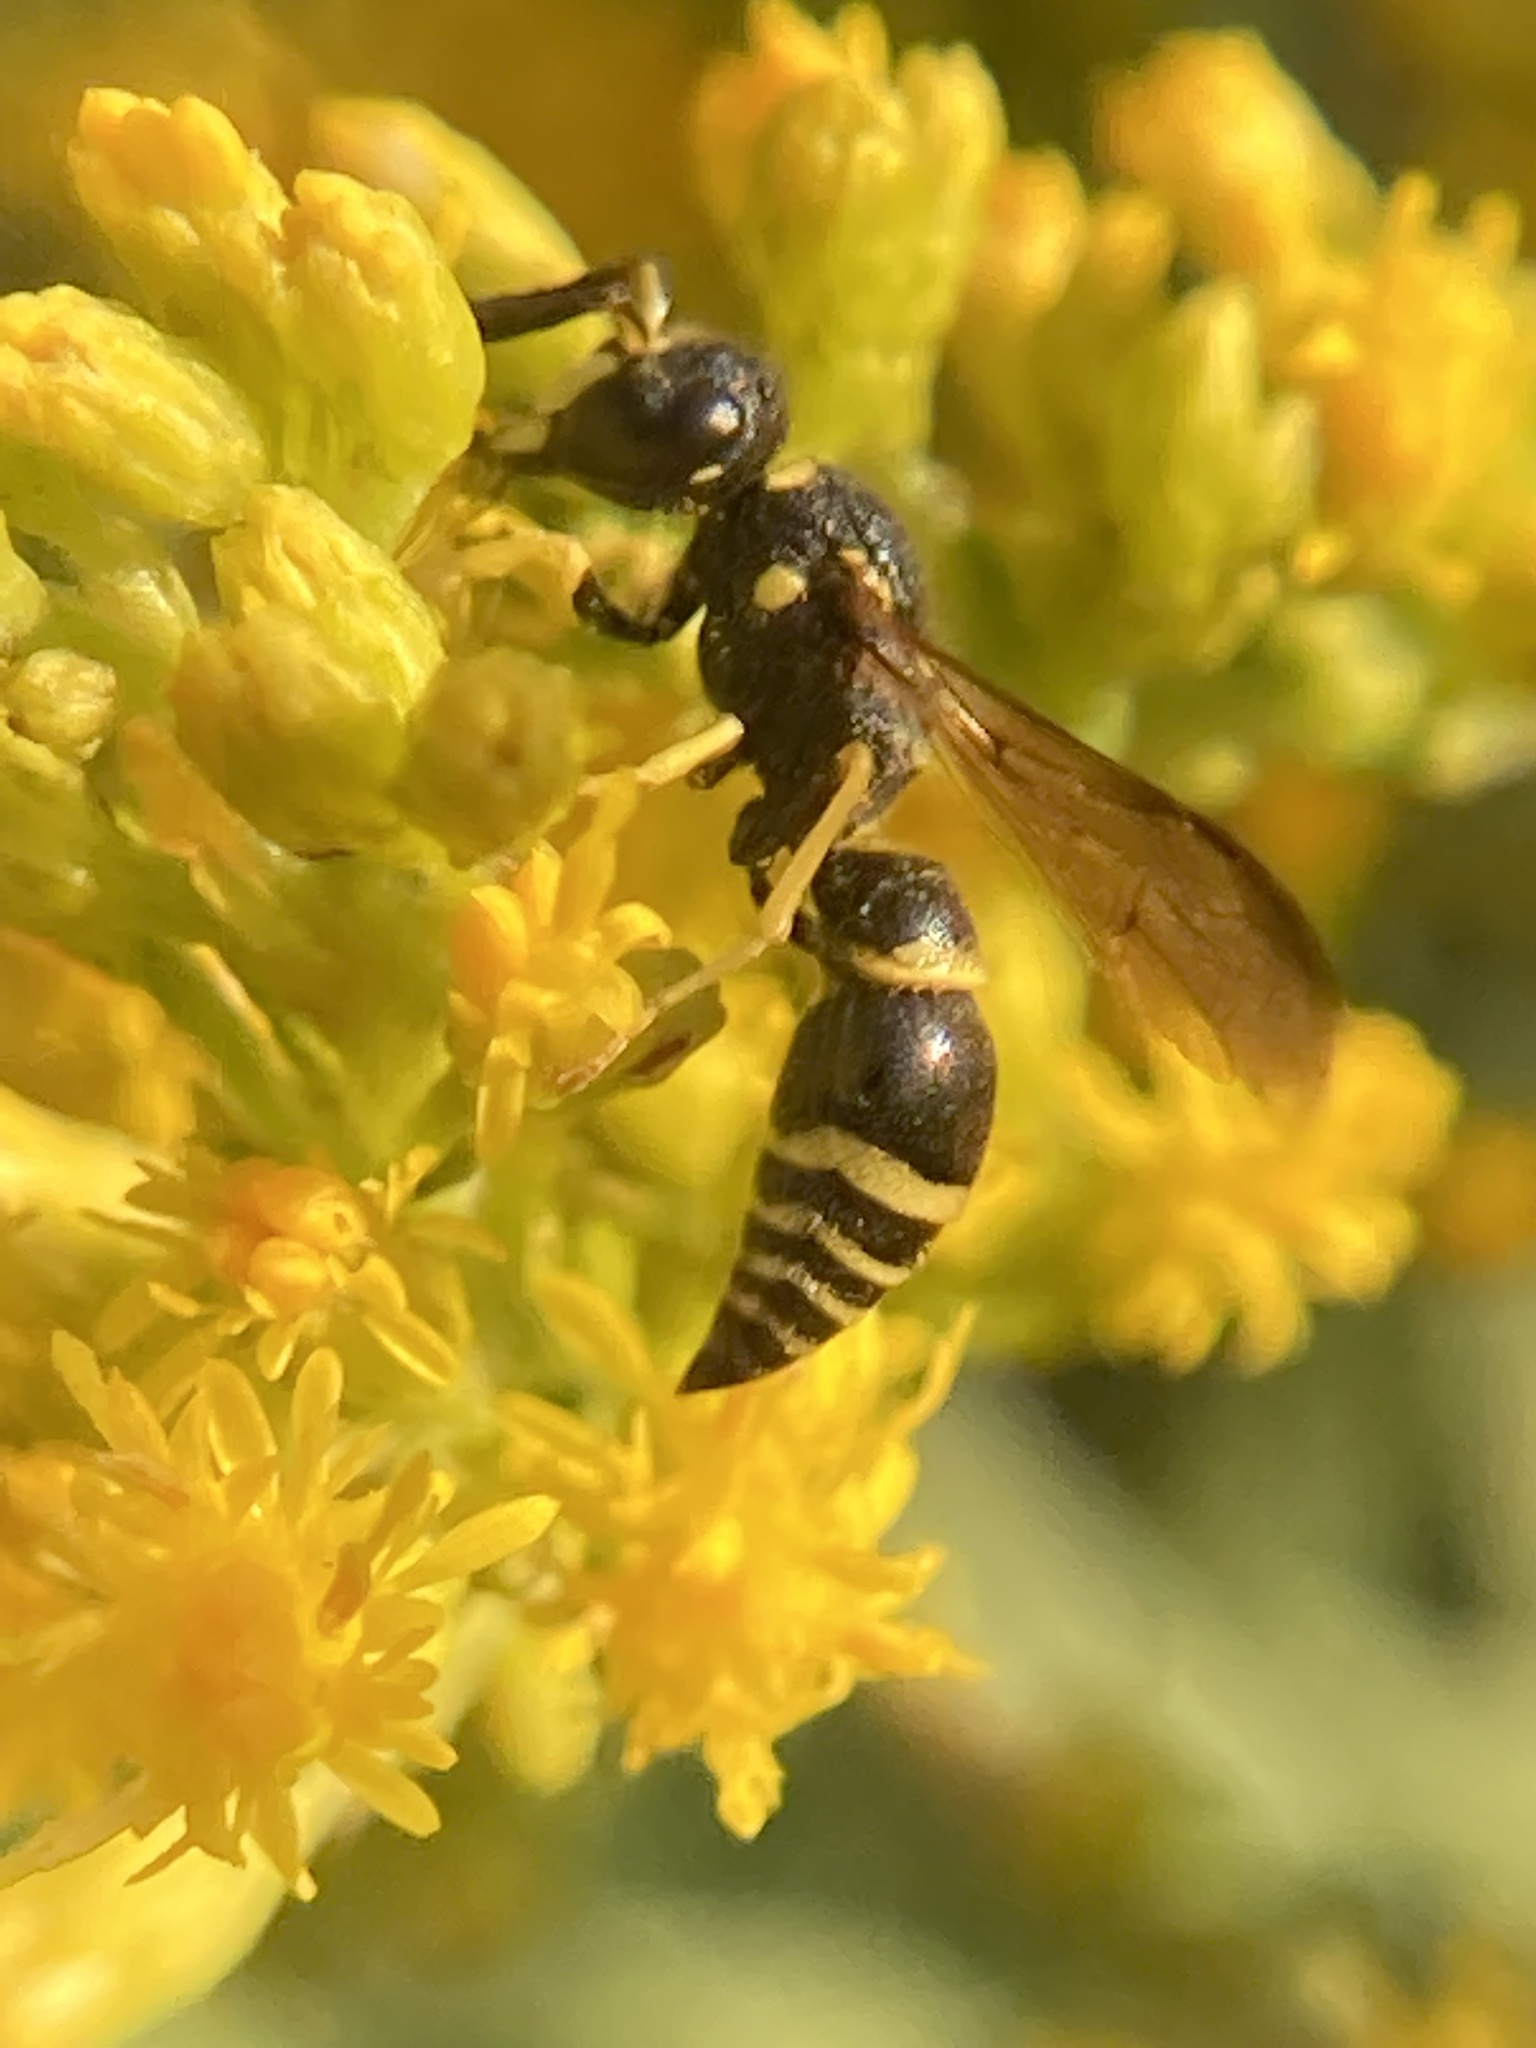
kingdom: Animalia
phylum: Arthropoda
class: Insecta
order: Hymenoptera
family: Vespidae
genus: Ancistrocerus
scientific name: Ancistrocerus adiabatus
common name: Bramble mason wasp
